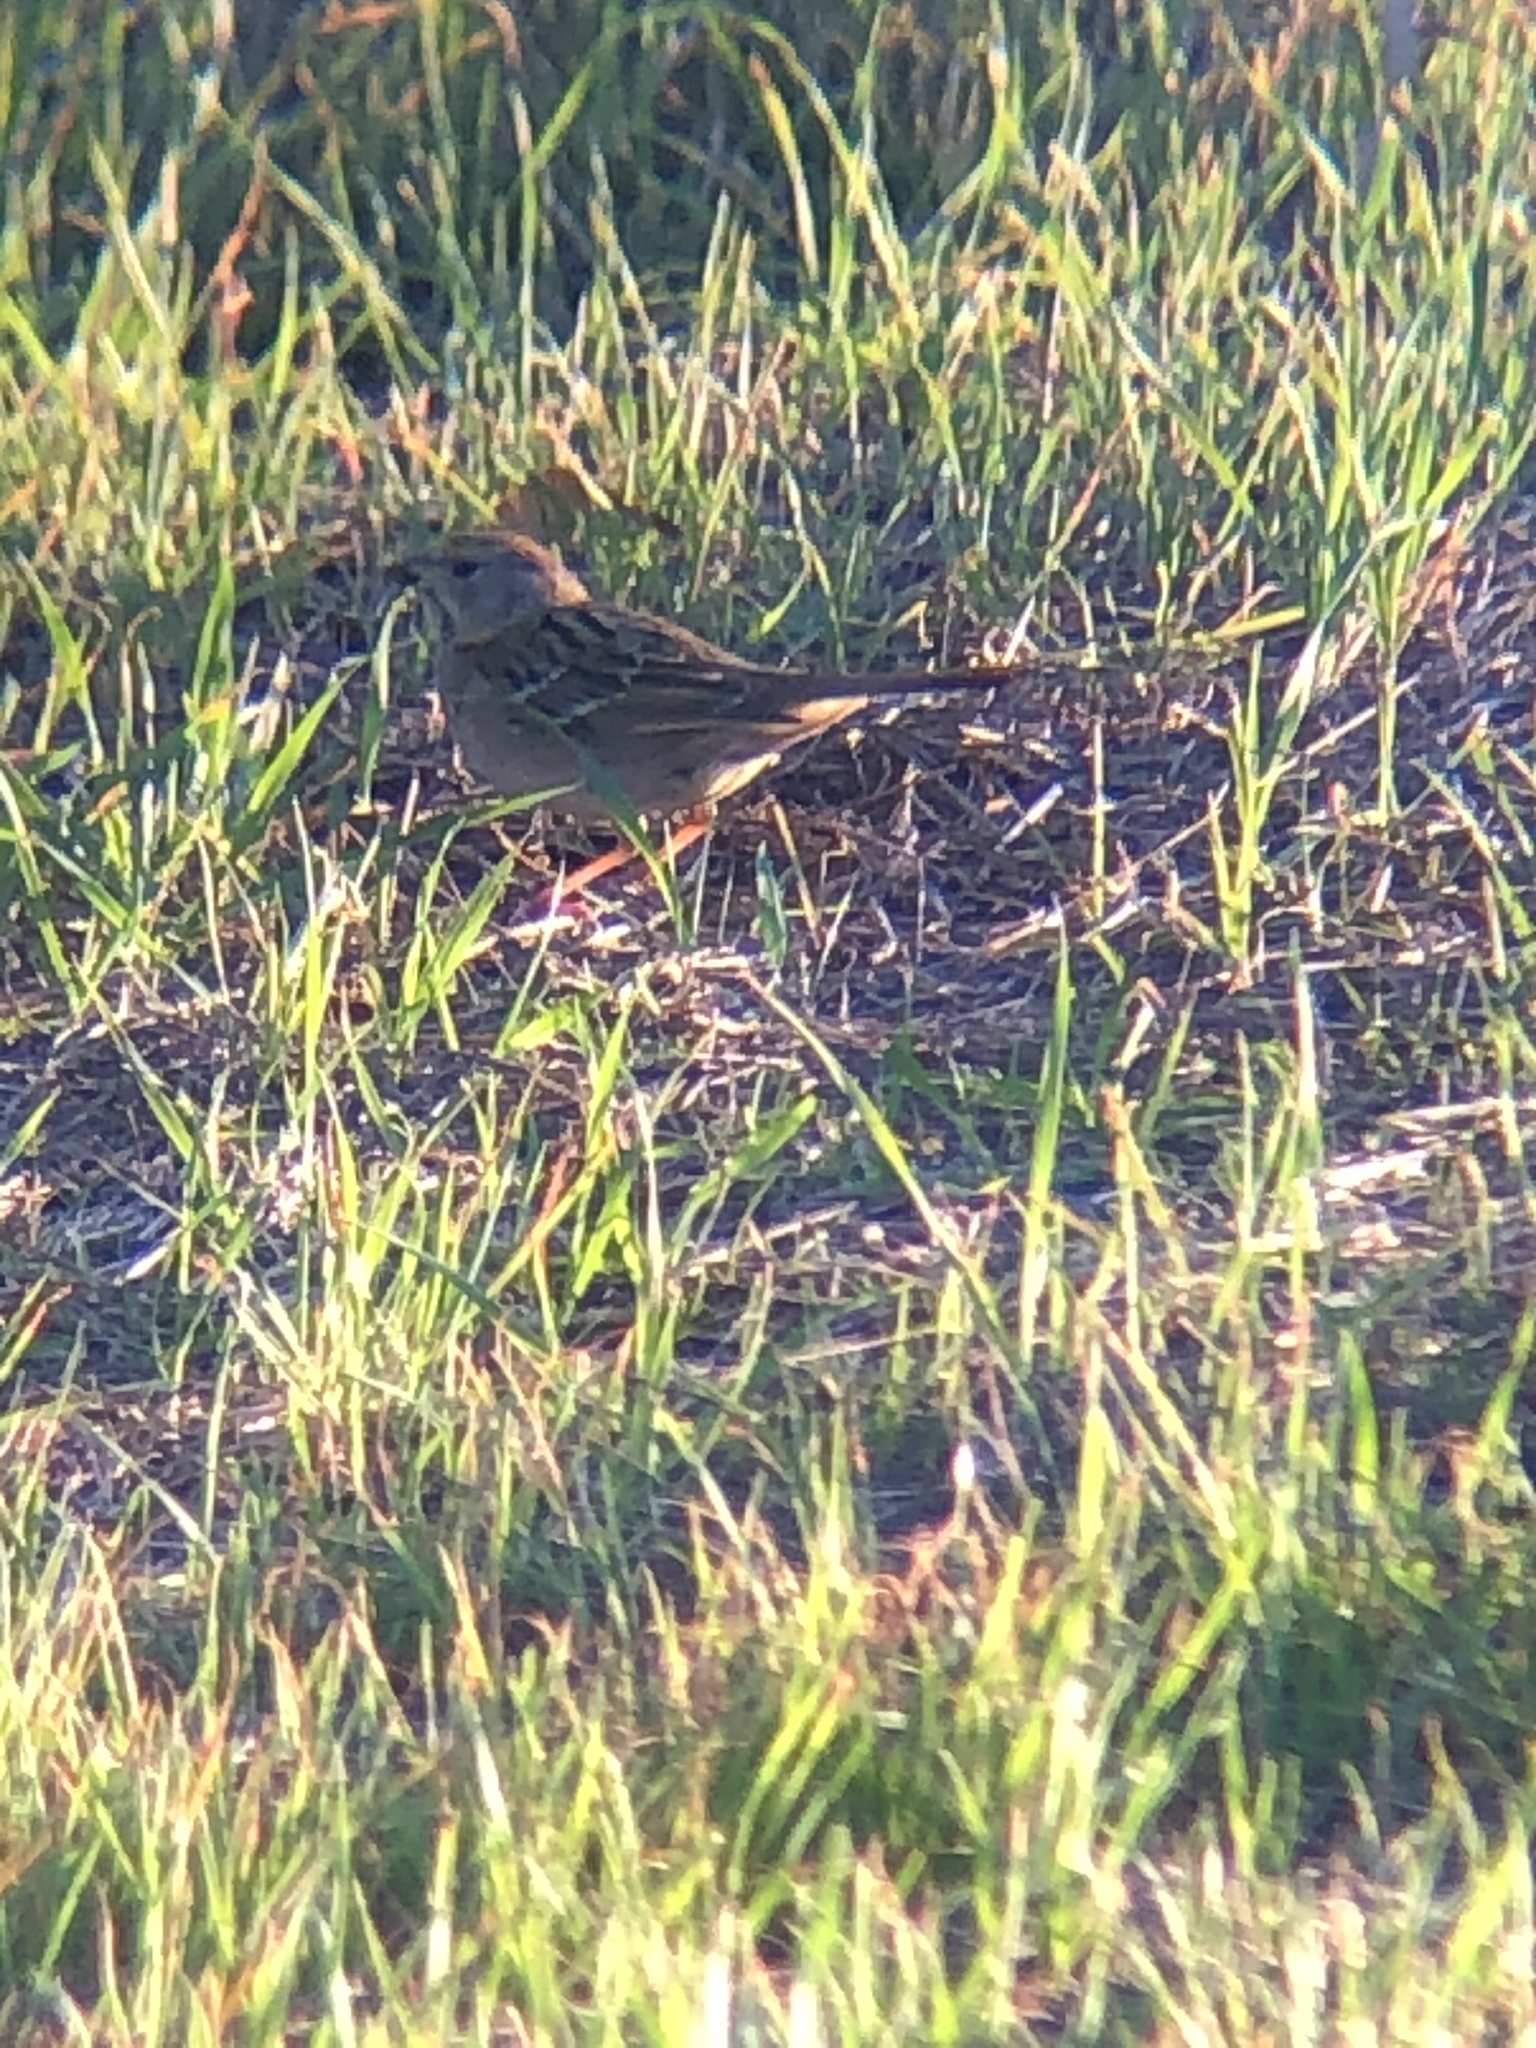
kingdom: Animalia
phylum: Chordata
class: Aves
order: Passeriformes
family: Passerellidae
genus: Zonotrichia
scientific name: Zonotrichia atricapilla
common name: Golden-crowned sparrow
